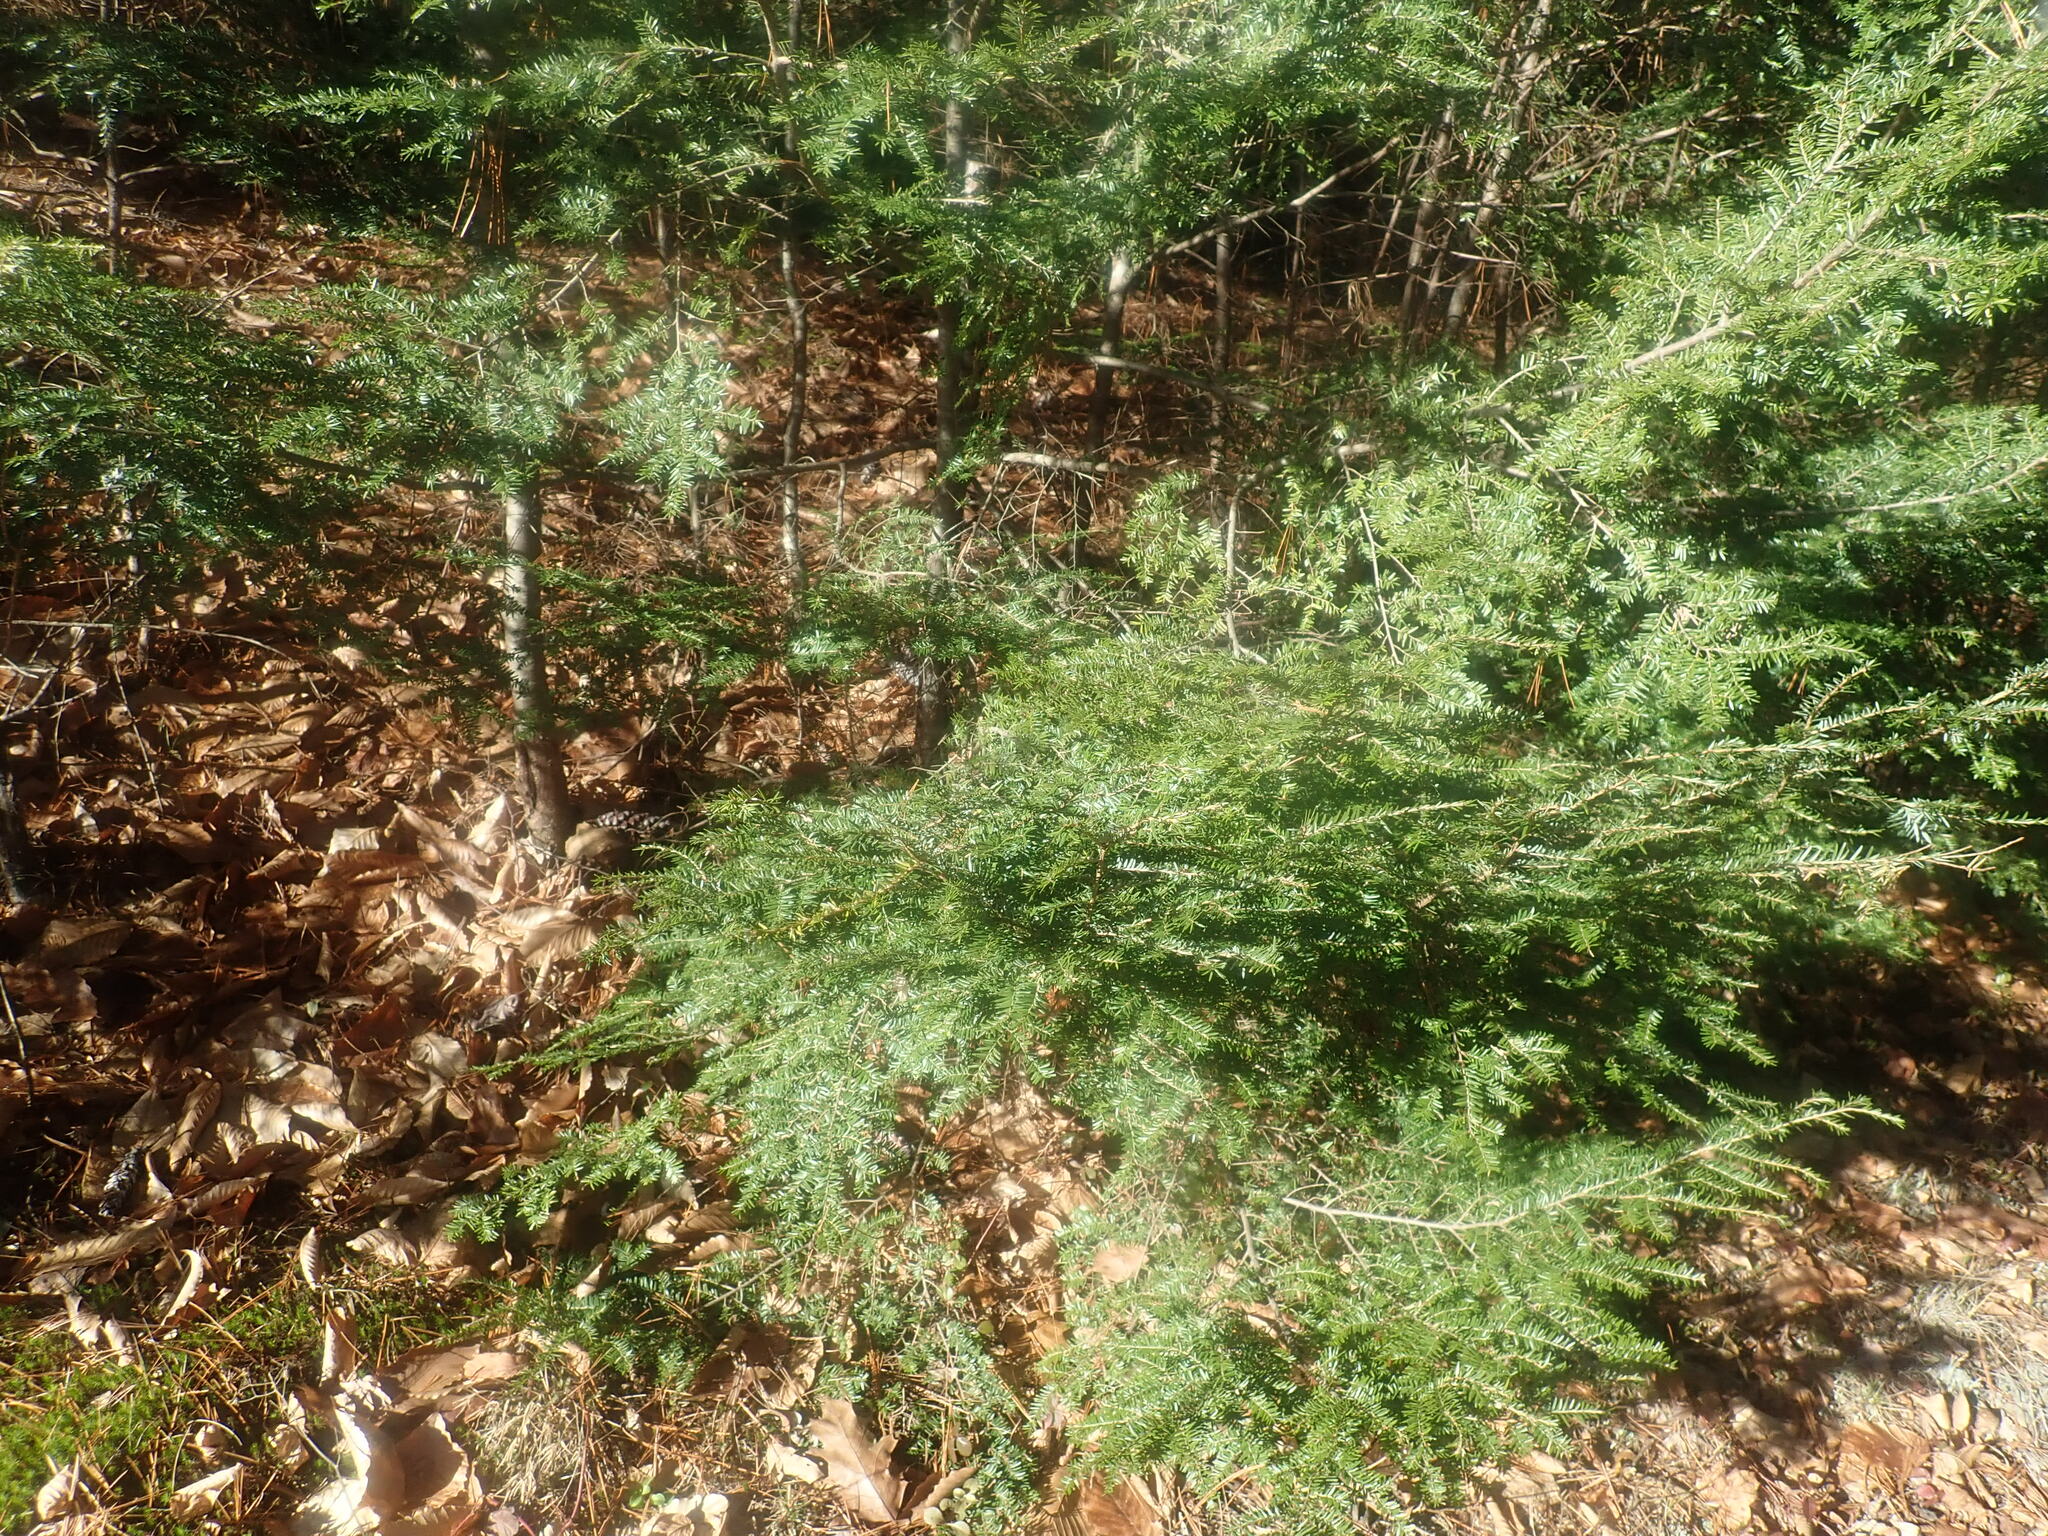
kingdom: Plantae
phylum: Tracheophyta
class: Pinopsida
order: Pinales
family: Pinaceae
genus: Tsuga
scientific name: Tsuga canadensis
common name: Eastern hemlock
